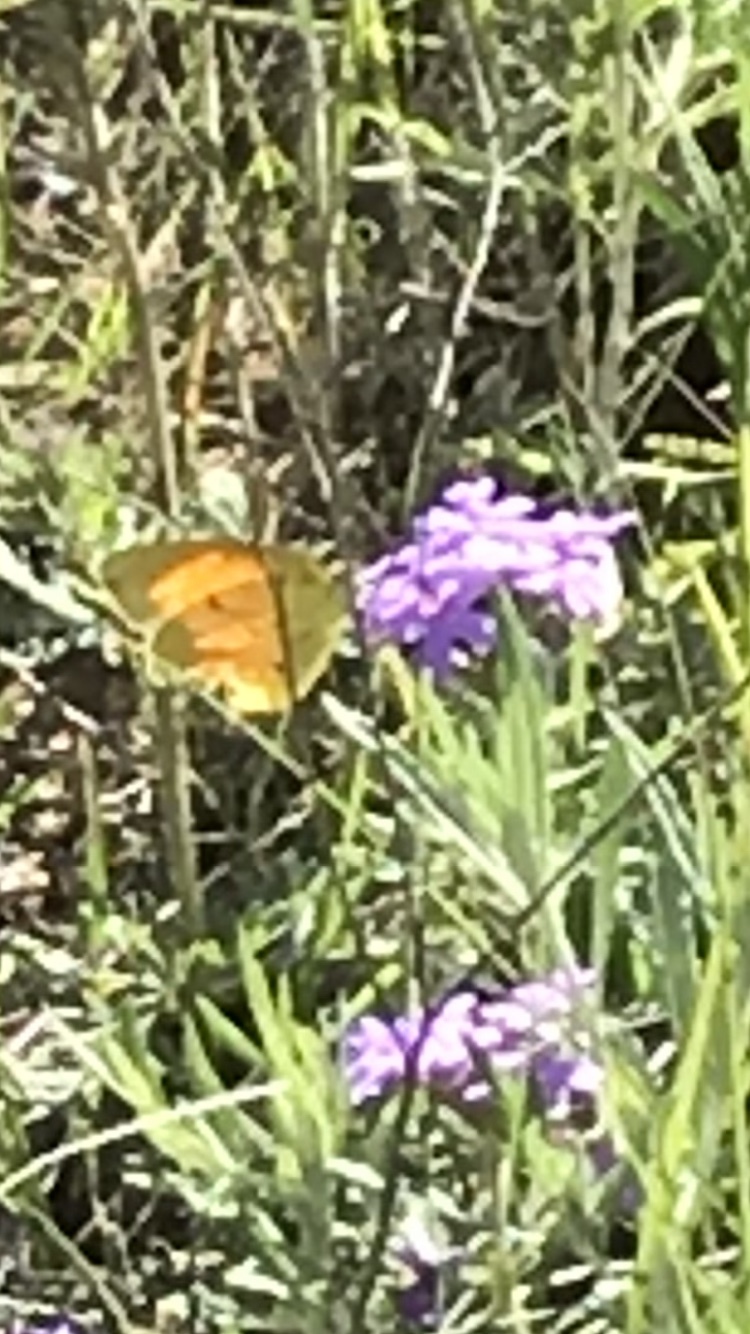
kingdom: Animalia
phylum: Arthropoda
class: Insecta
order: Lepidoptera
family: Pieridae
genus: Abaeis
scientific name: Abaeis nicippe
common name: Sleepy orange
